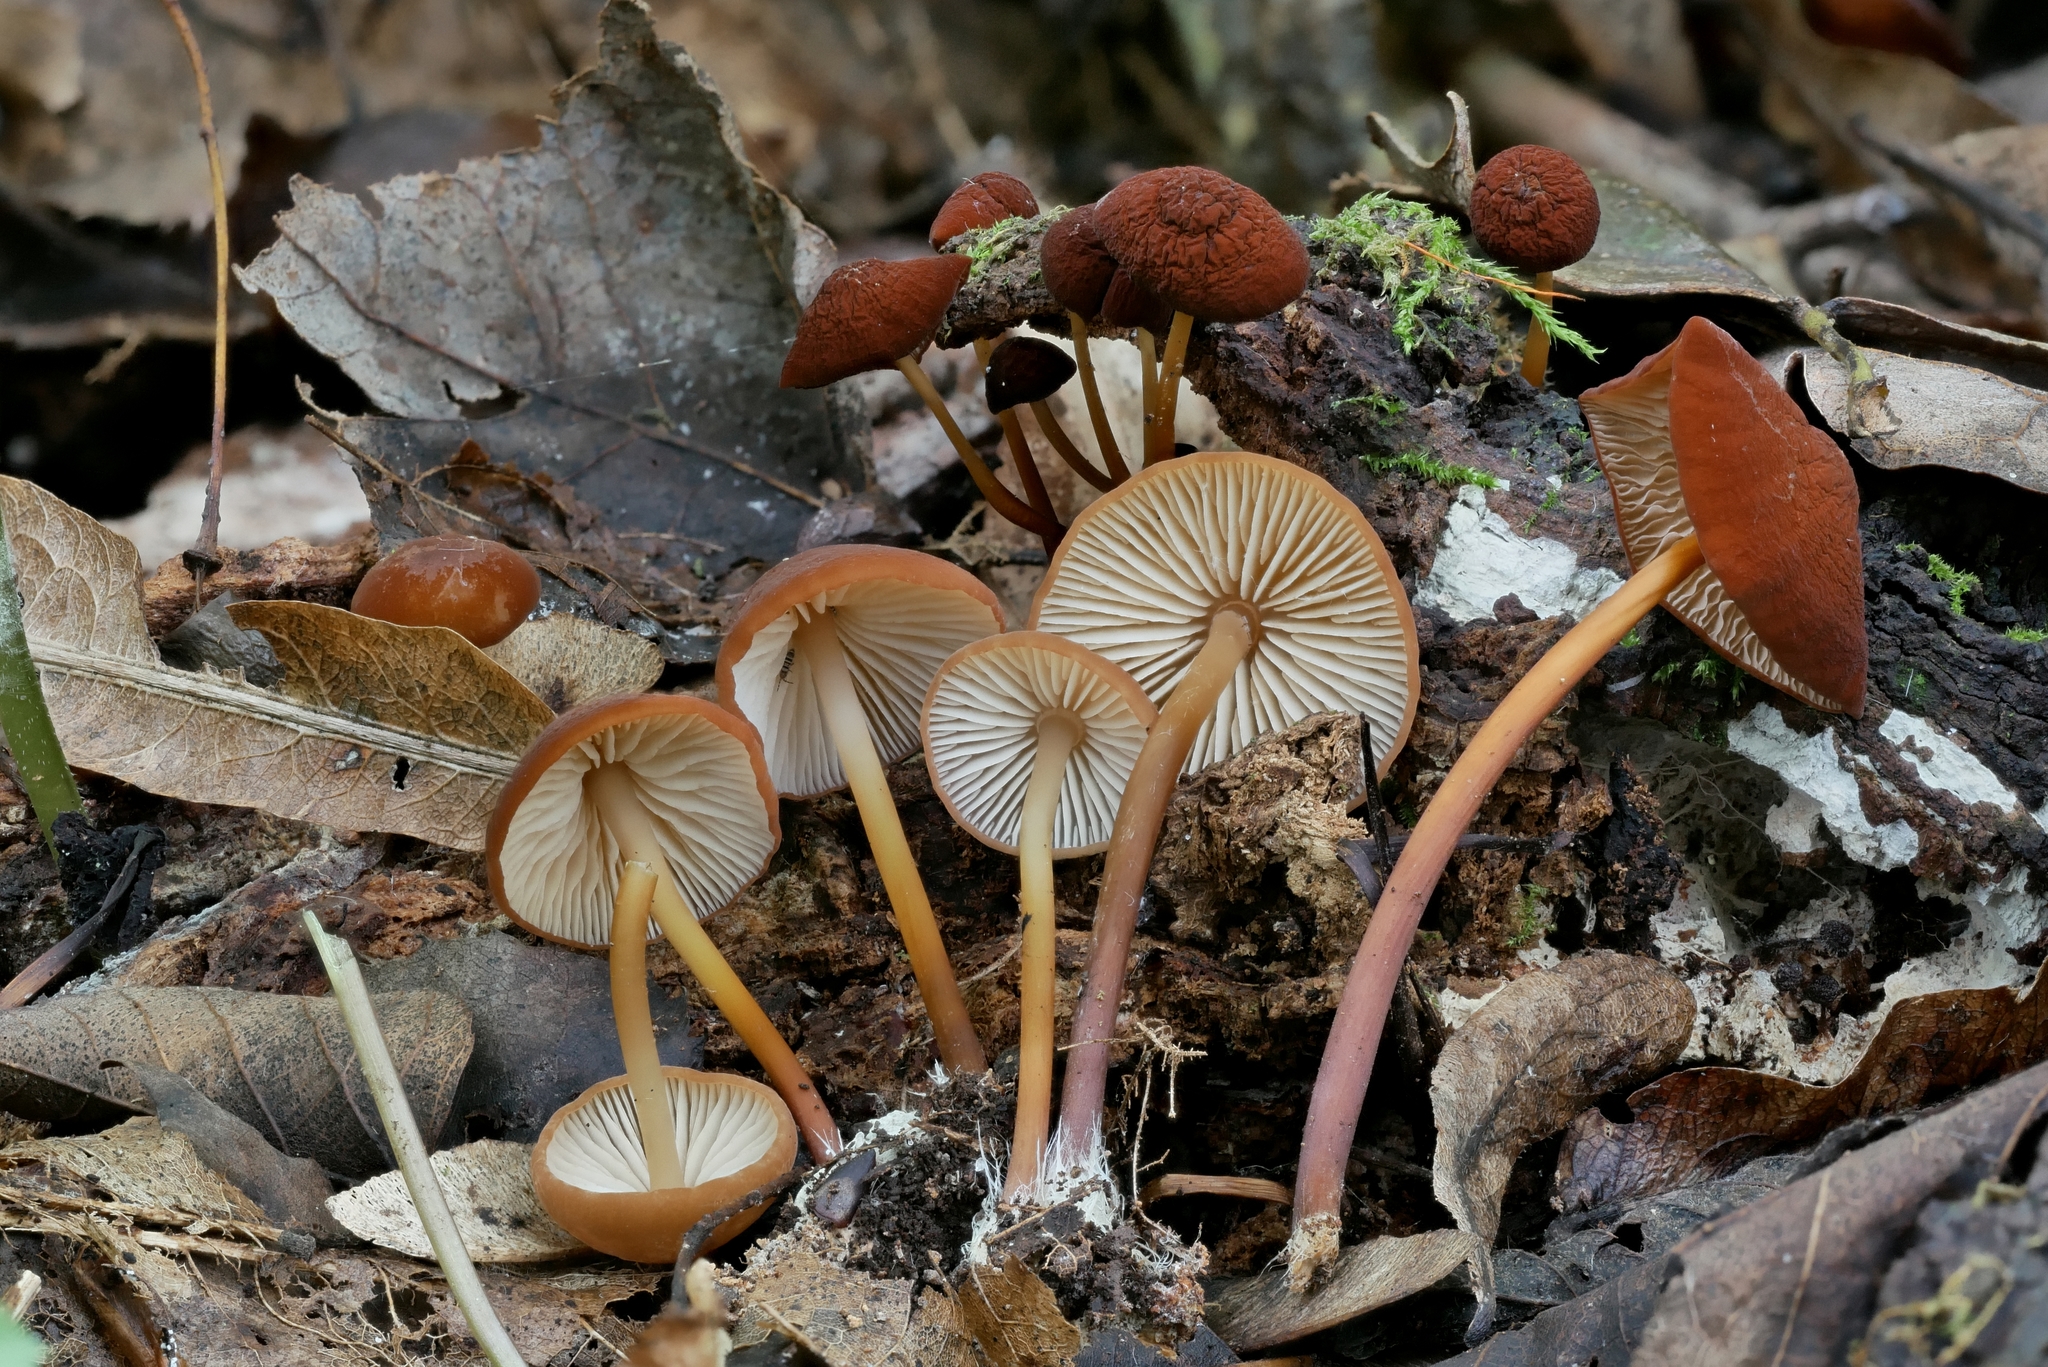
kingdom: Fungi
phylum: Basidiomycota
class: Agaricomycetes
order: Agaricales
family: Omphalotaceae
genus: Gymnopus
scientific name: Gymnopus lachnophyllus
